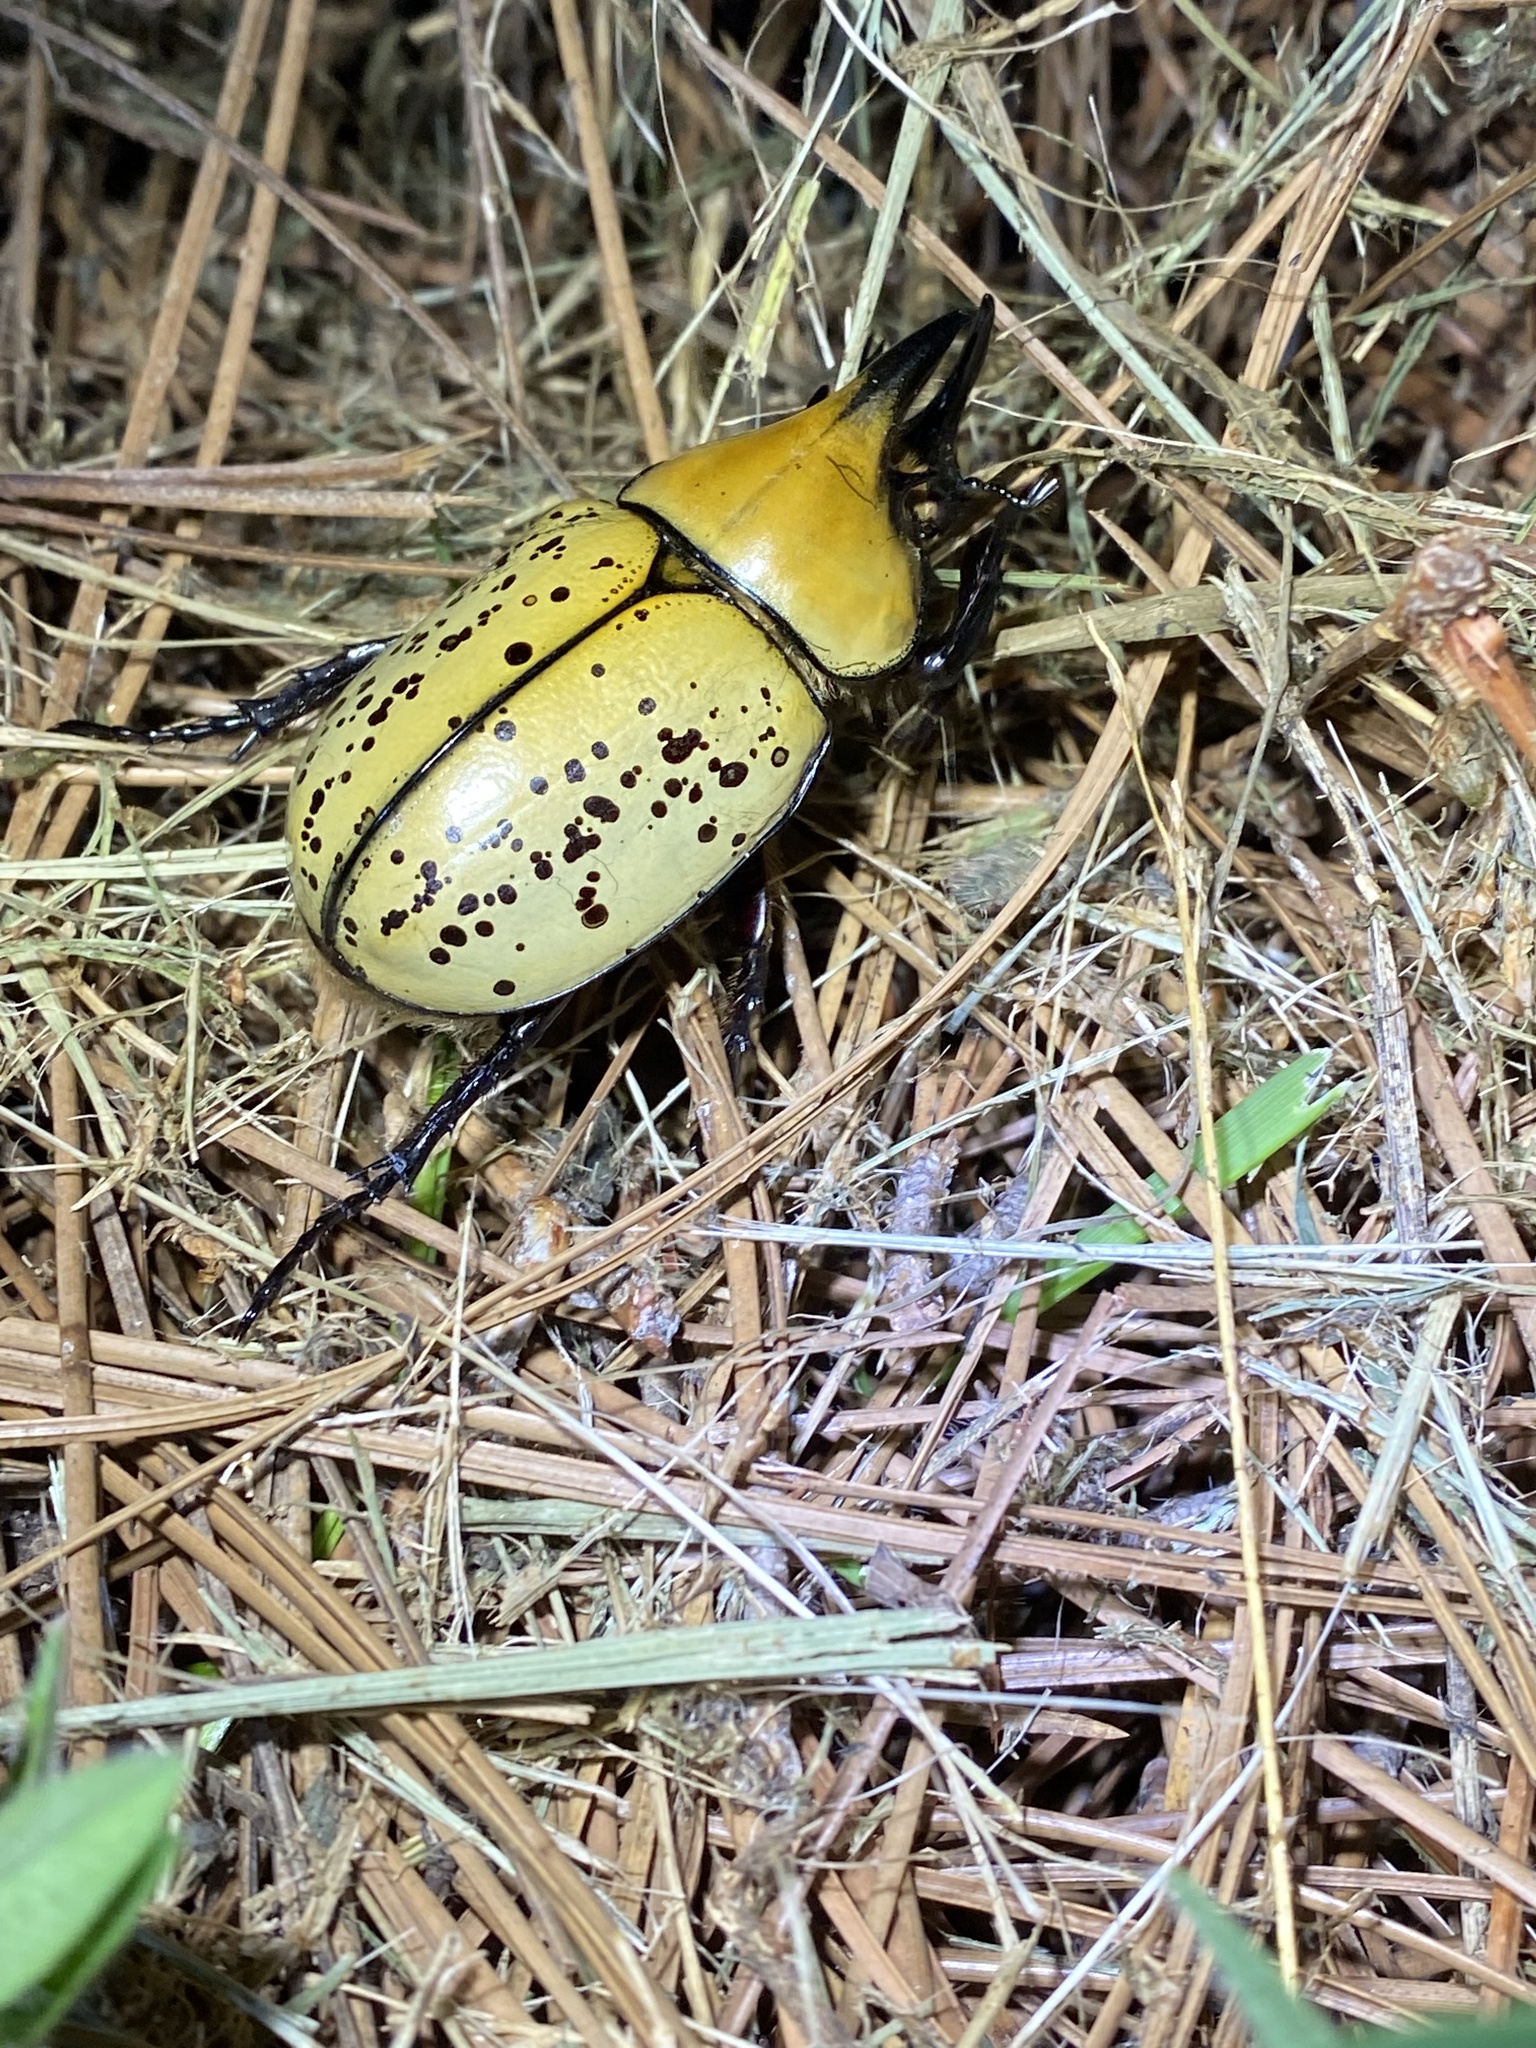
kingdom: Animalia
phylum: Arthropoda
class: Insecta
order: Coleoptera
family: Scarabaeidae
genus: Dynastes
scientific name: Dynastes tityus
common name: Eastern hercules beetle
